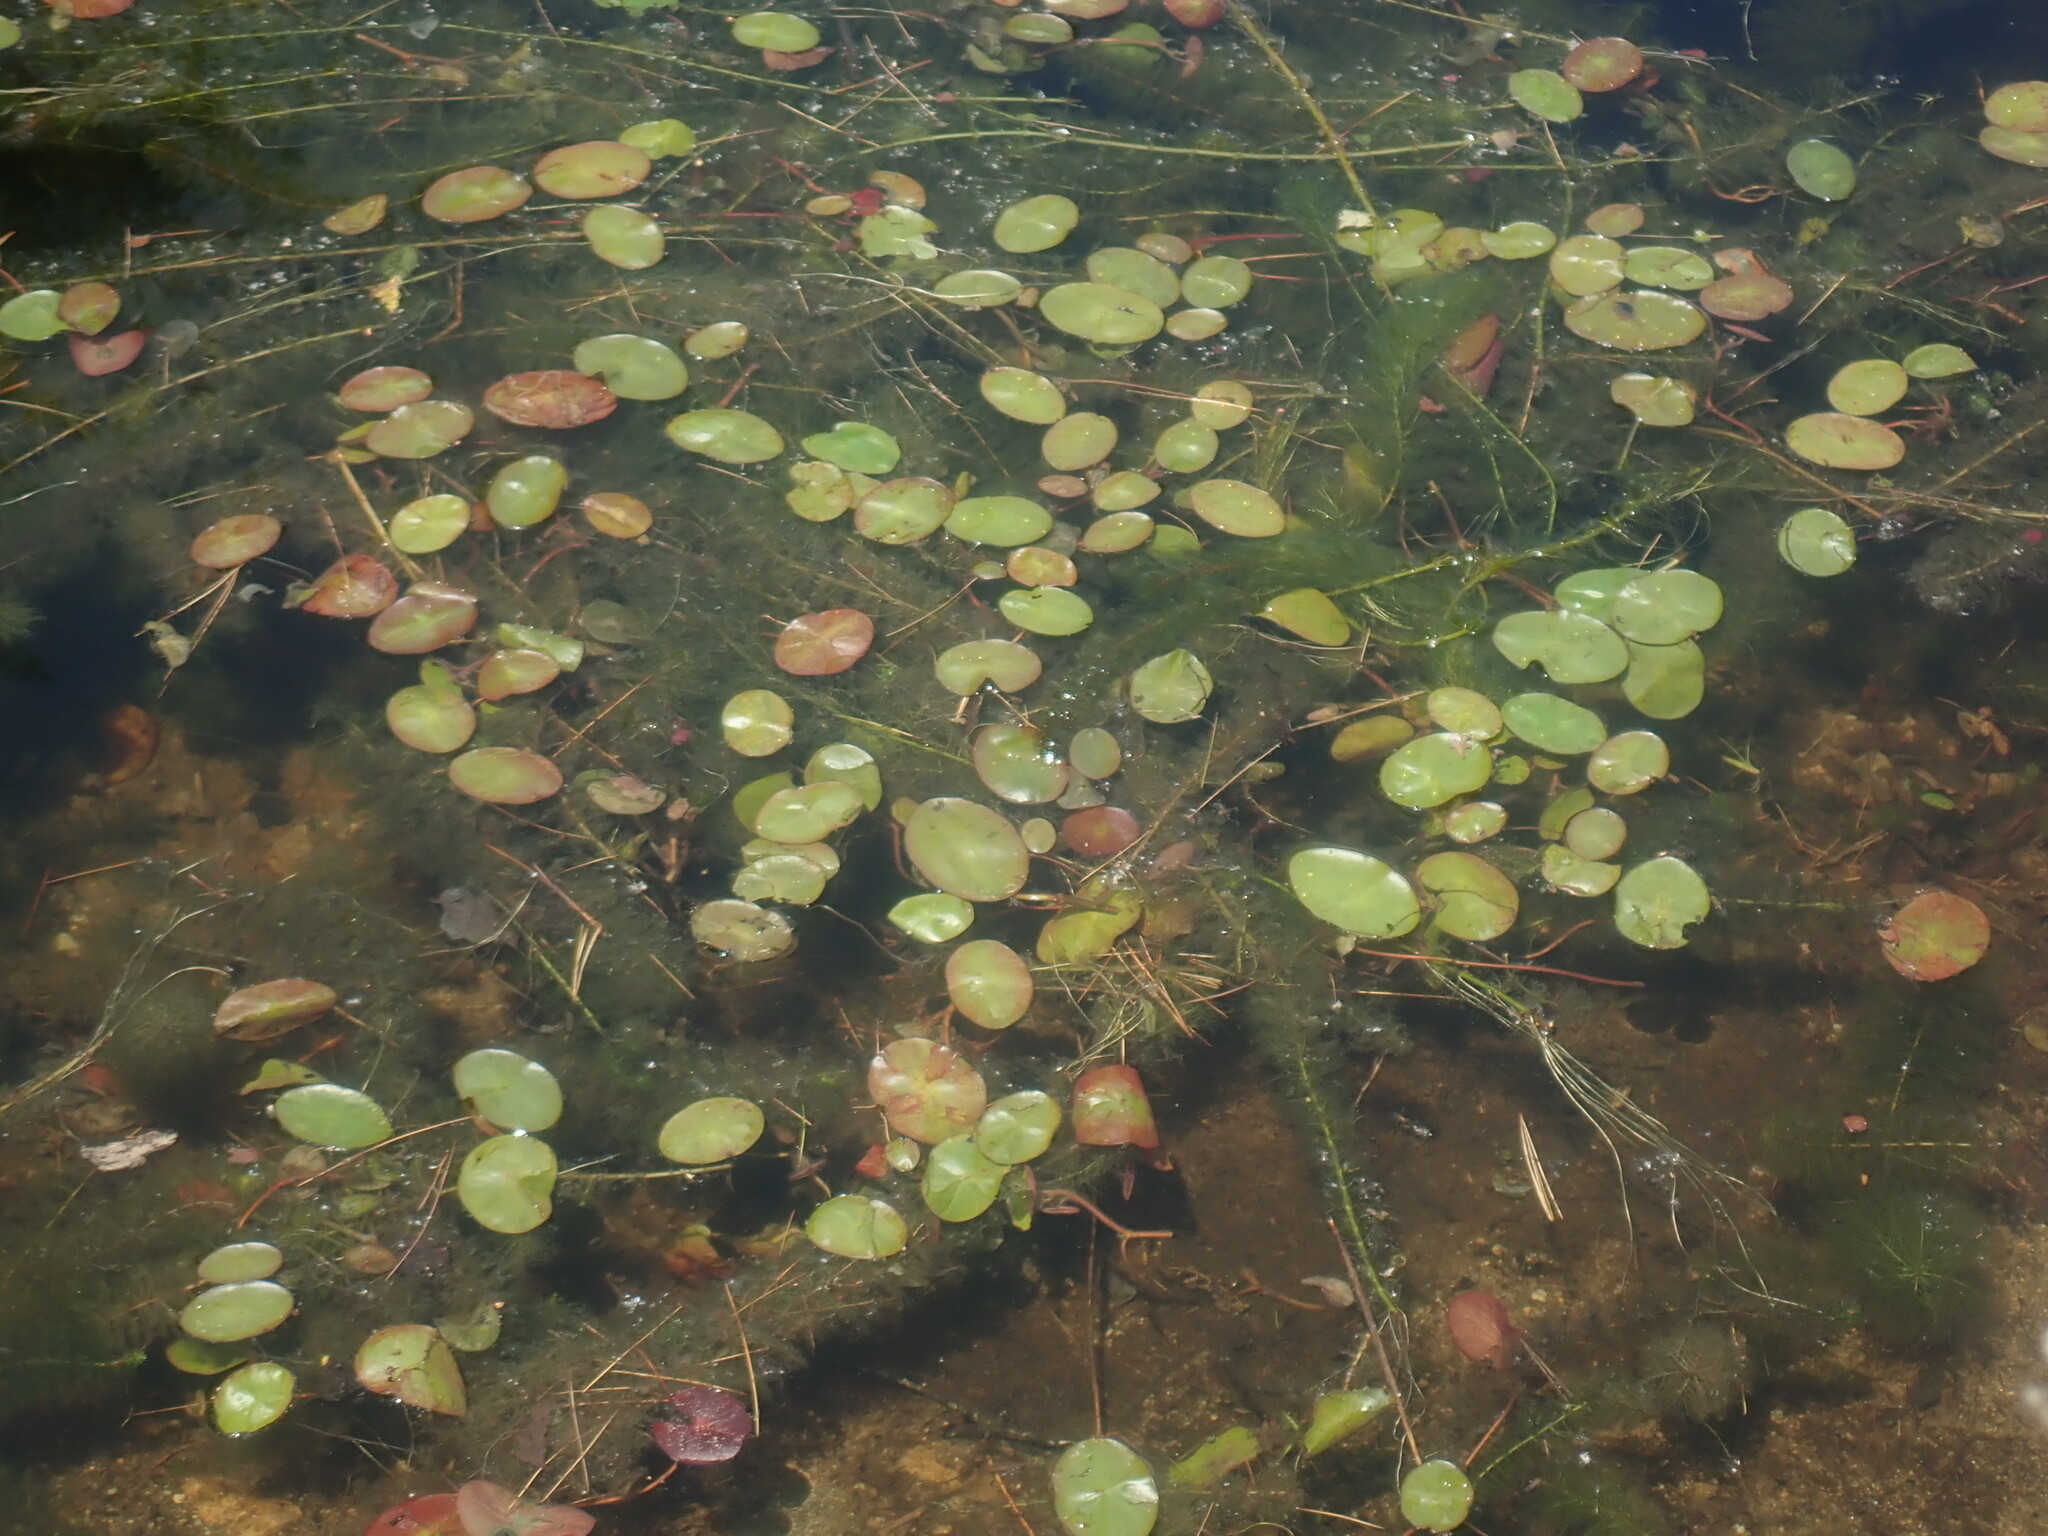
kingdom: Plantae
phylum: Tracheophyta
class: Magnoliopsida
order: Nymphaeales
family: Cabombaceae
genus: Brasenia
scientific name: Brasenia schreberi
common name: Water-shield
